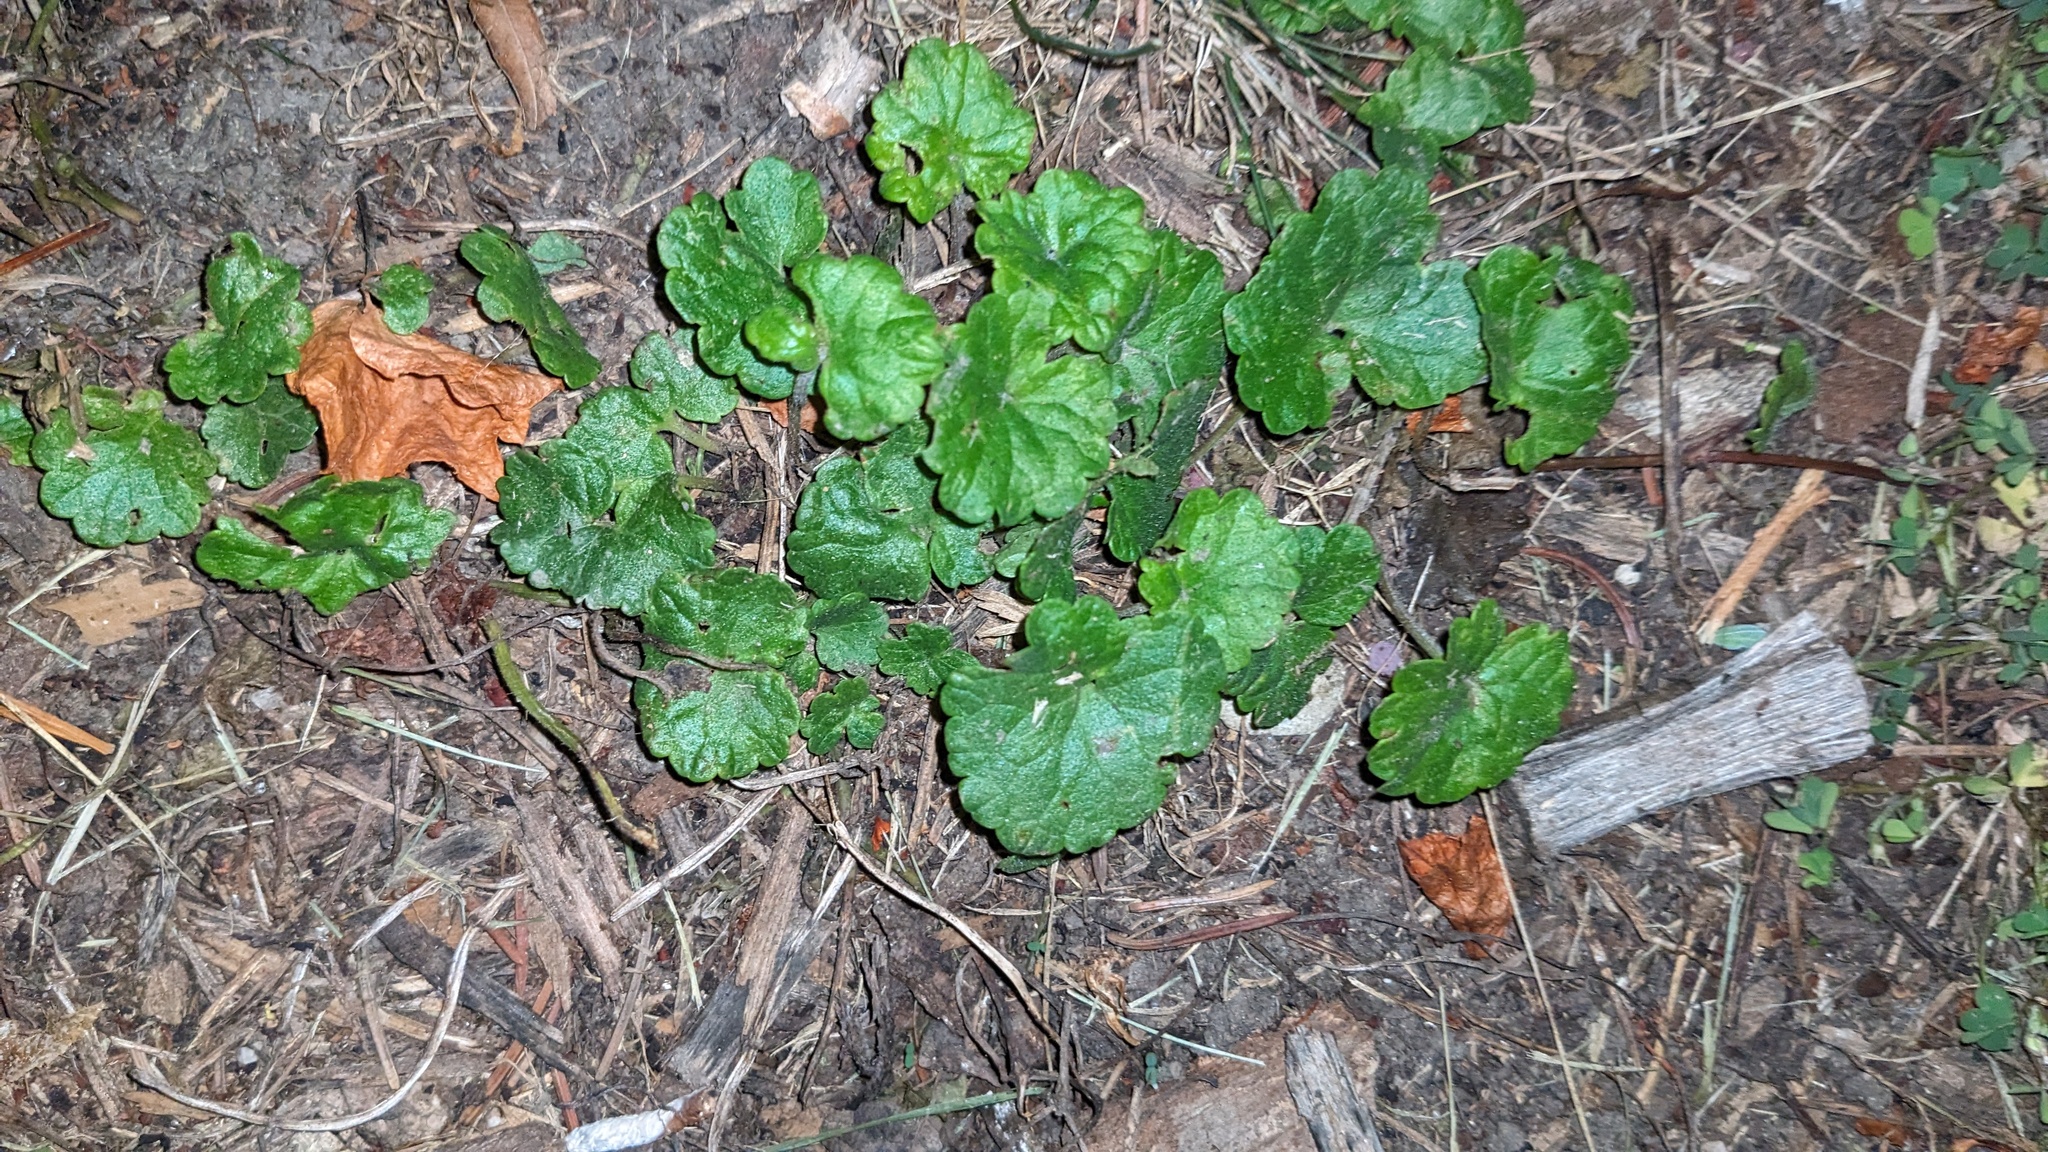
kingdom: Plantae
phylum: Tracheophyta
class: Magnoliopsida
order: Lamiales
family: Lamiaceae
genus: Glechoma
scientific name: Glechoma hederacea
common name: Ground ivy
